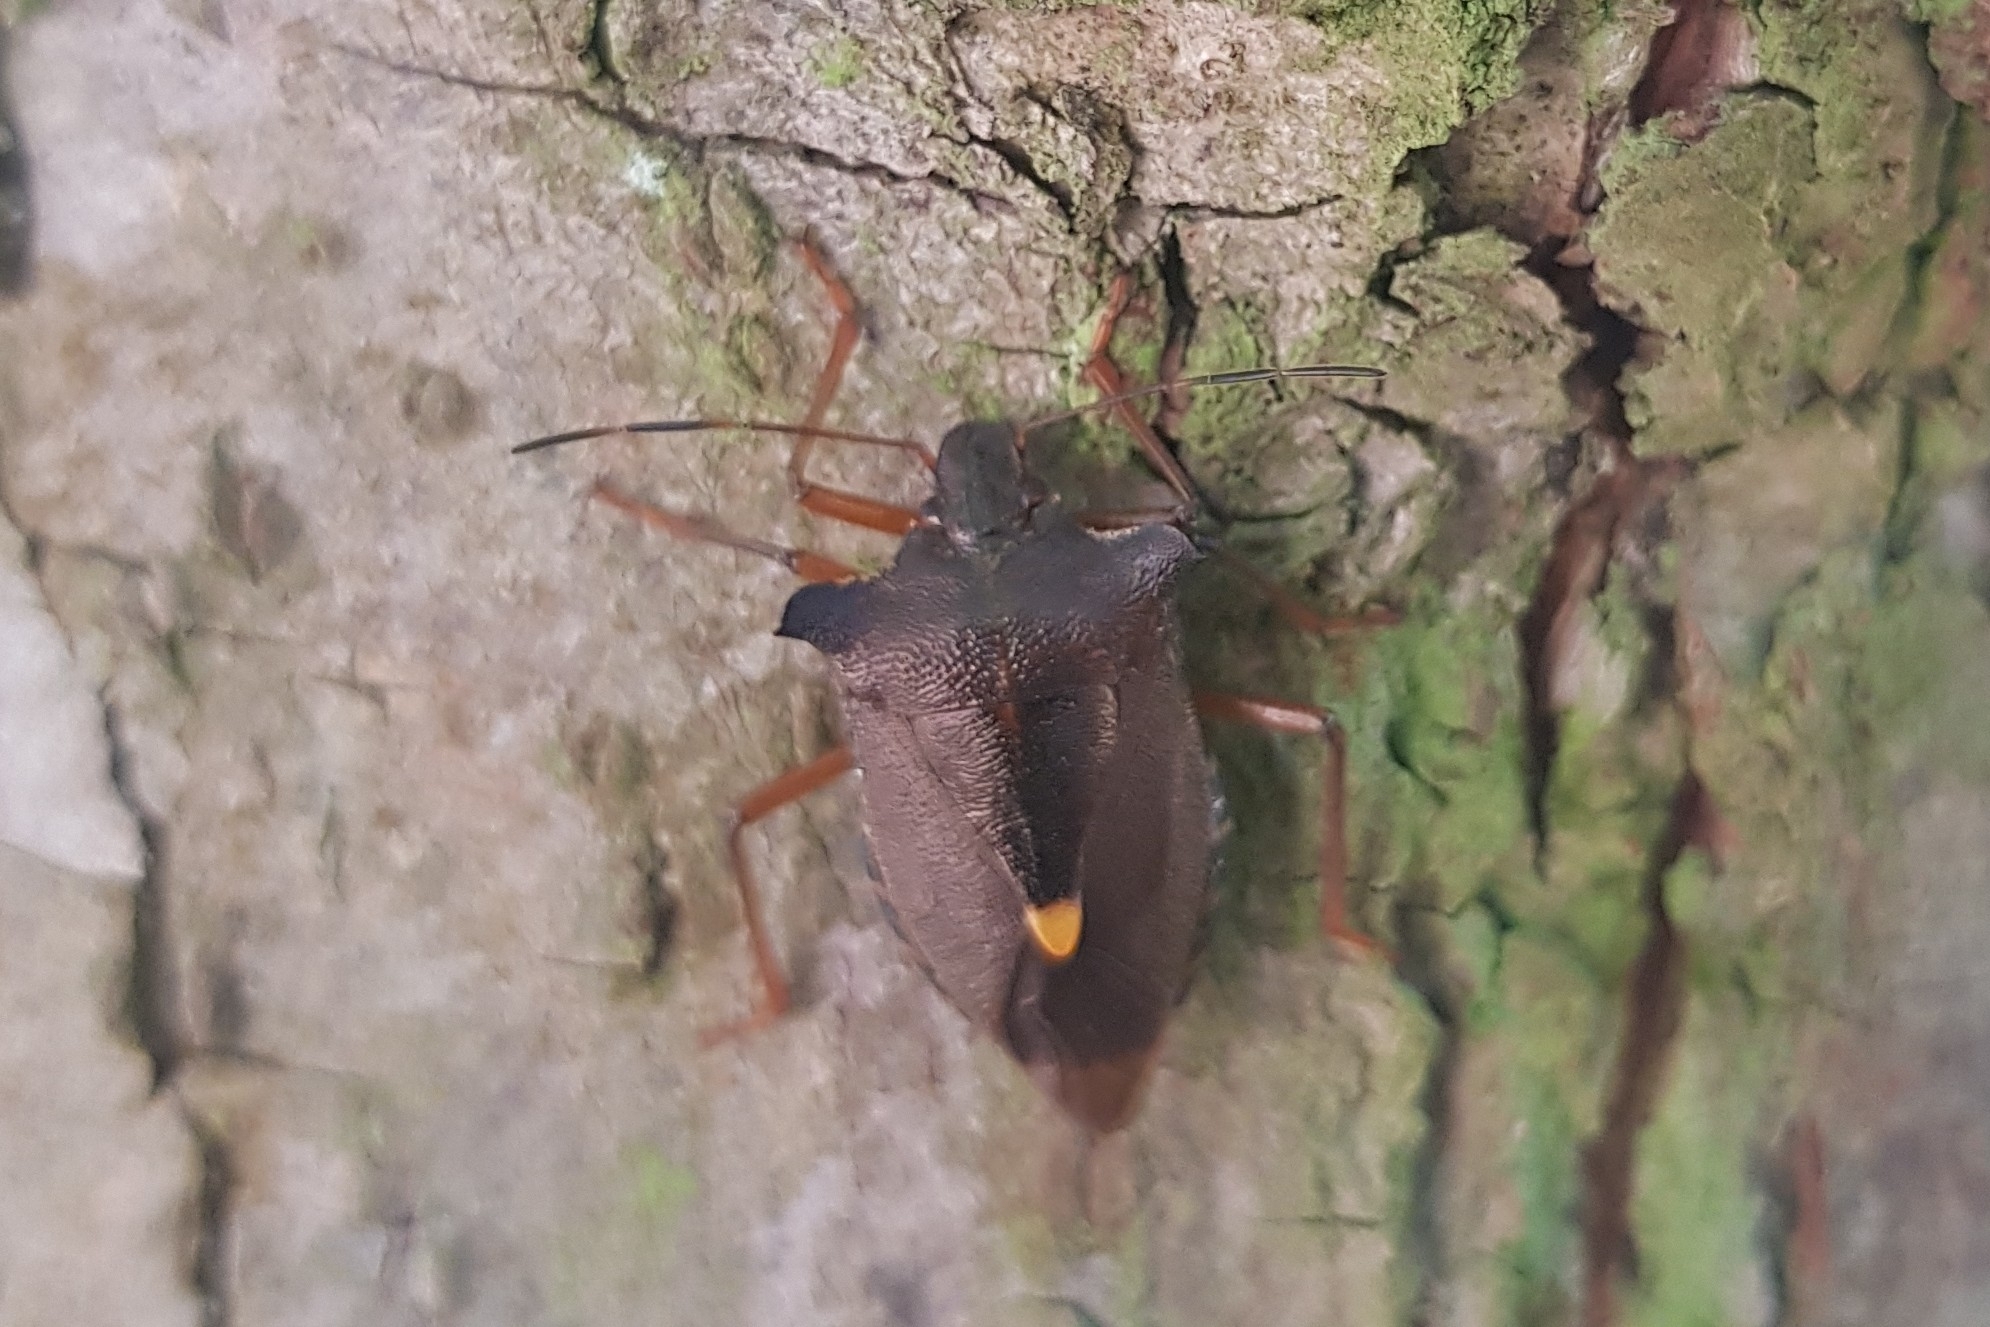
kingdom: Animalia
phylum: Arthropoda
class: Insecta
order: Hemiptera
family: Pentatomidae
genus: Pentatoma
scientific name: Pentatoma rufipes
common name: Forest bug
